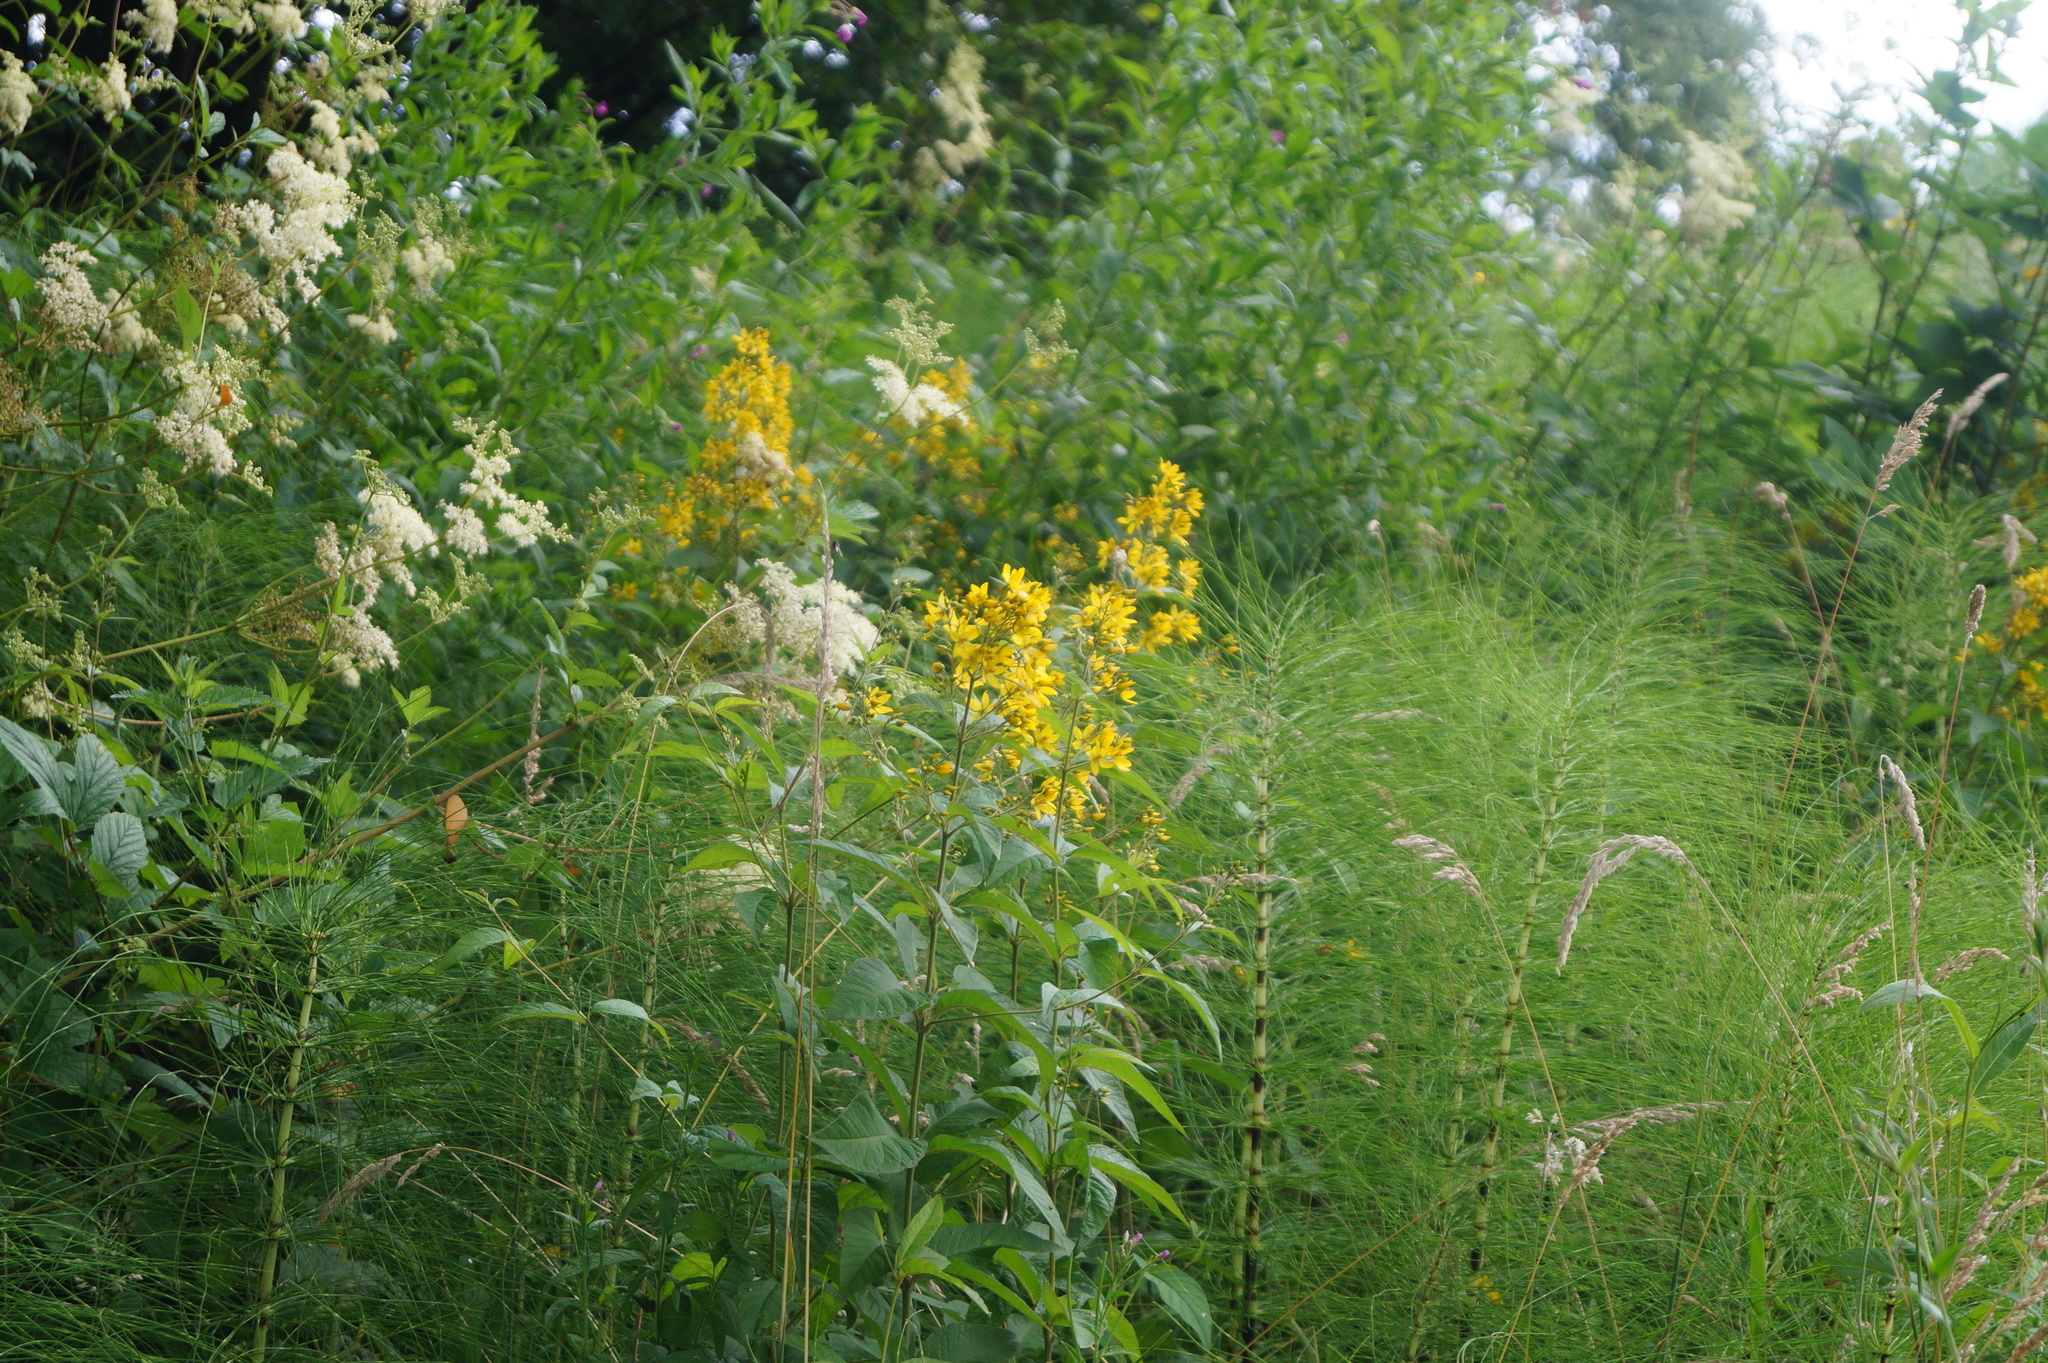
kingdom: Plantae
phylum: Tracheophyta
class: Magnoliopsida
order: Ericales
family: Primulaceae
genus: Lysimachia
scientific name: Lysimachia vulgaris
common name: Yellow loosestrife
